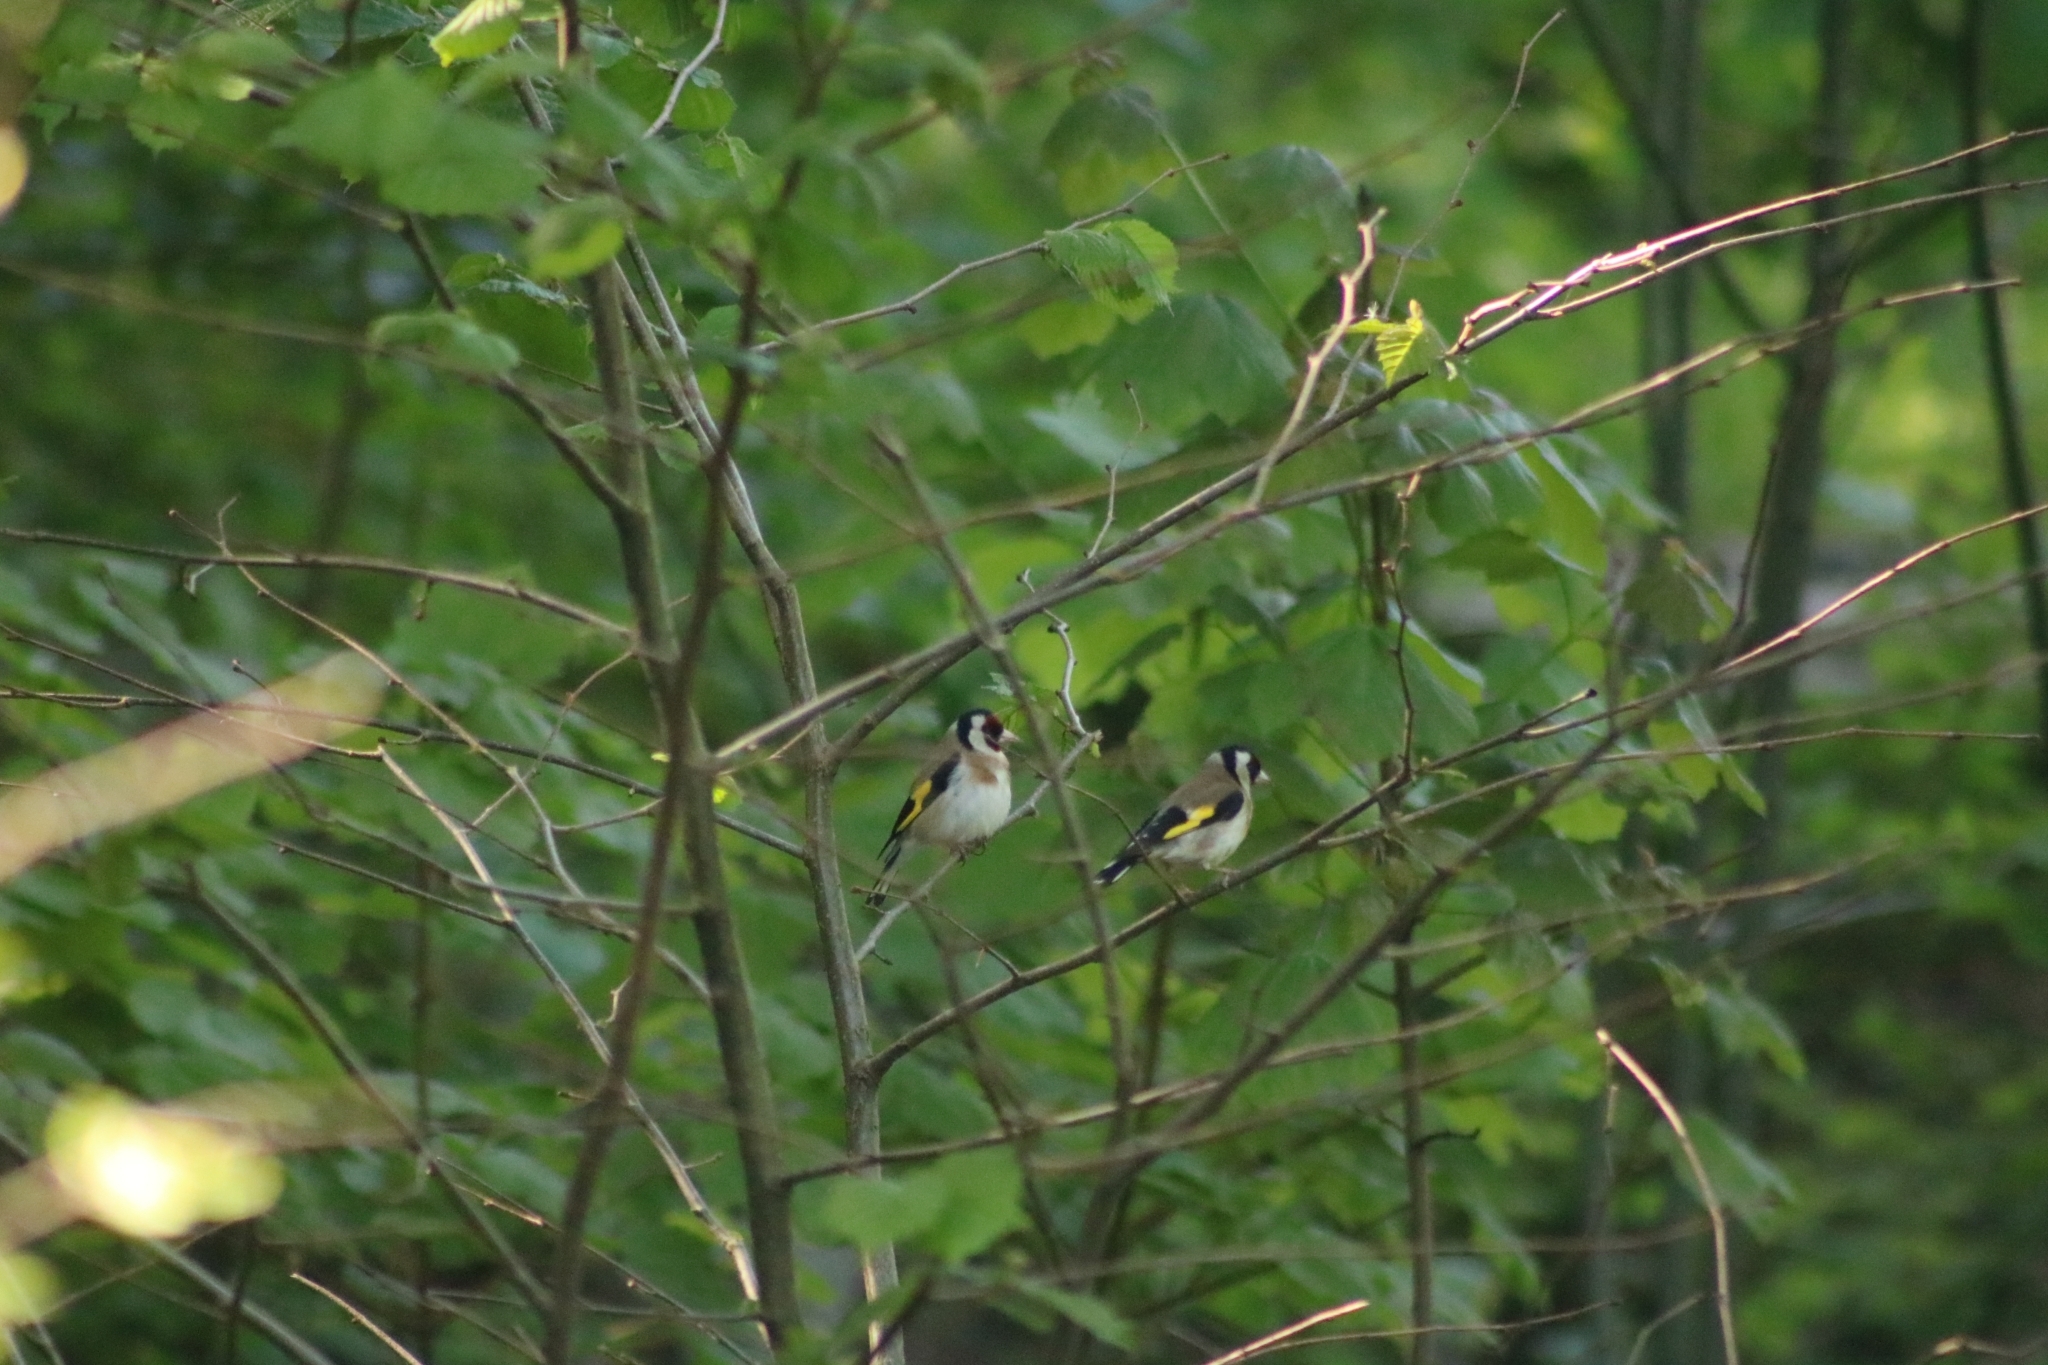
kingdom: Animalia
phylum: Chordata
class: Aves
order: Passeriformes
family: Fringillidae
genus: Carduelis
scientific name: Carduelis carduelis
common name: European goldfinch
